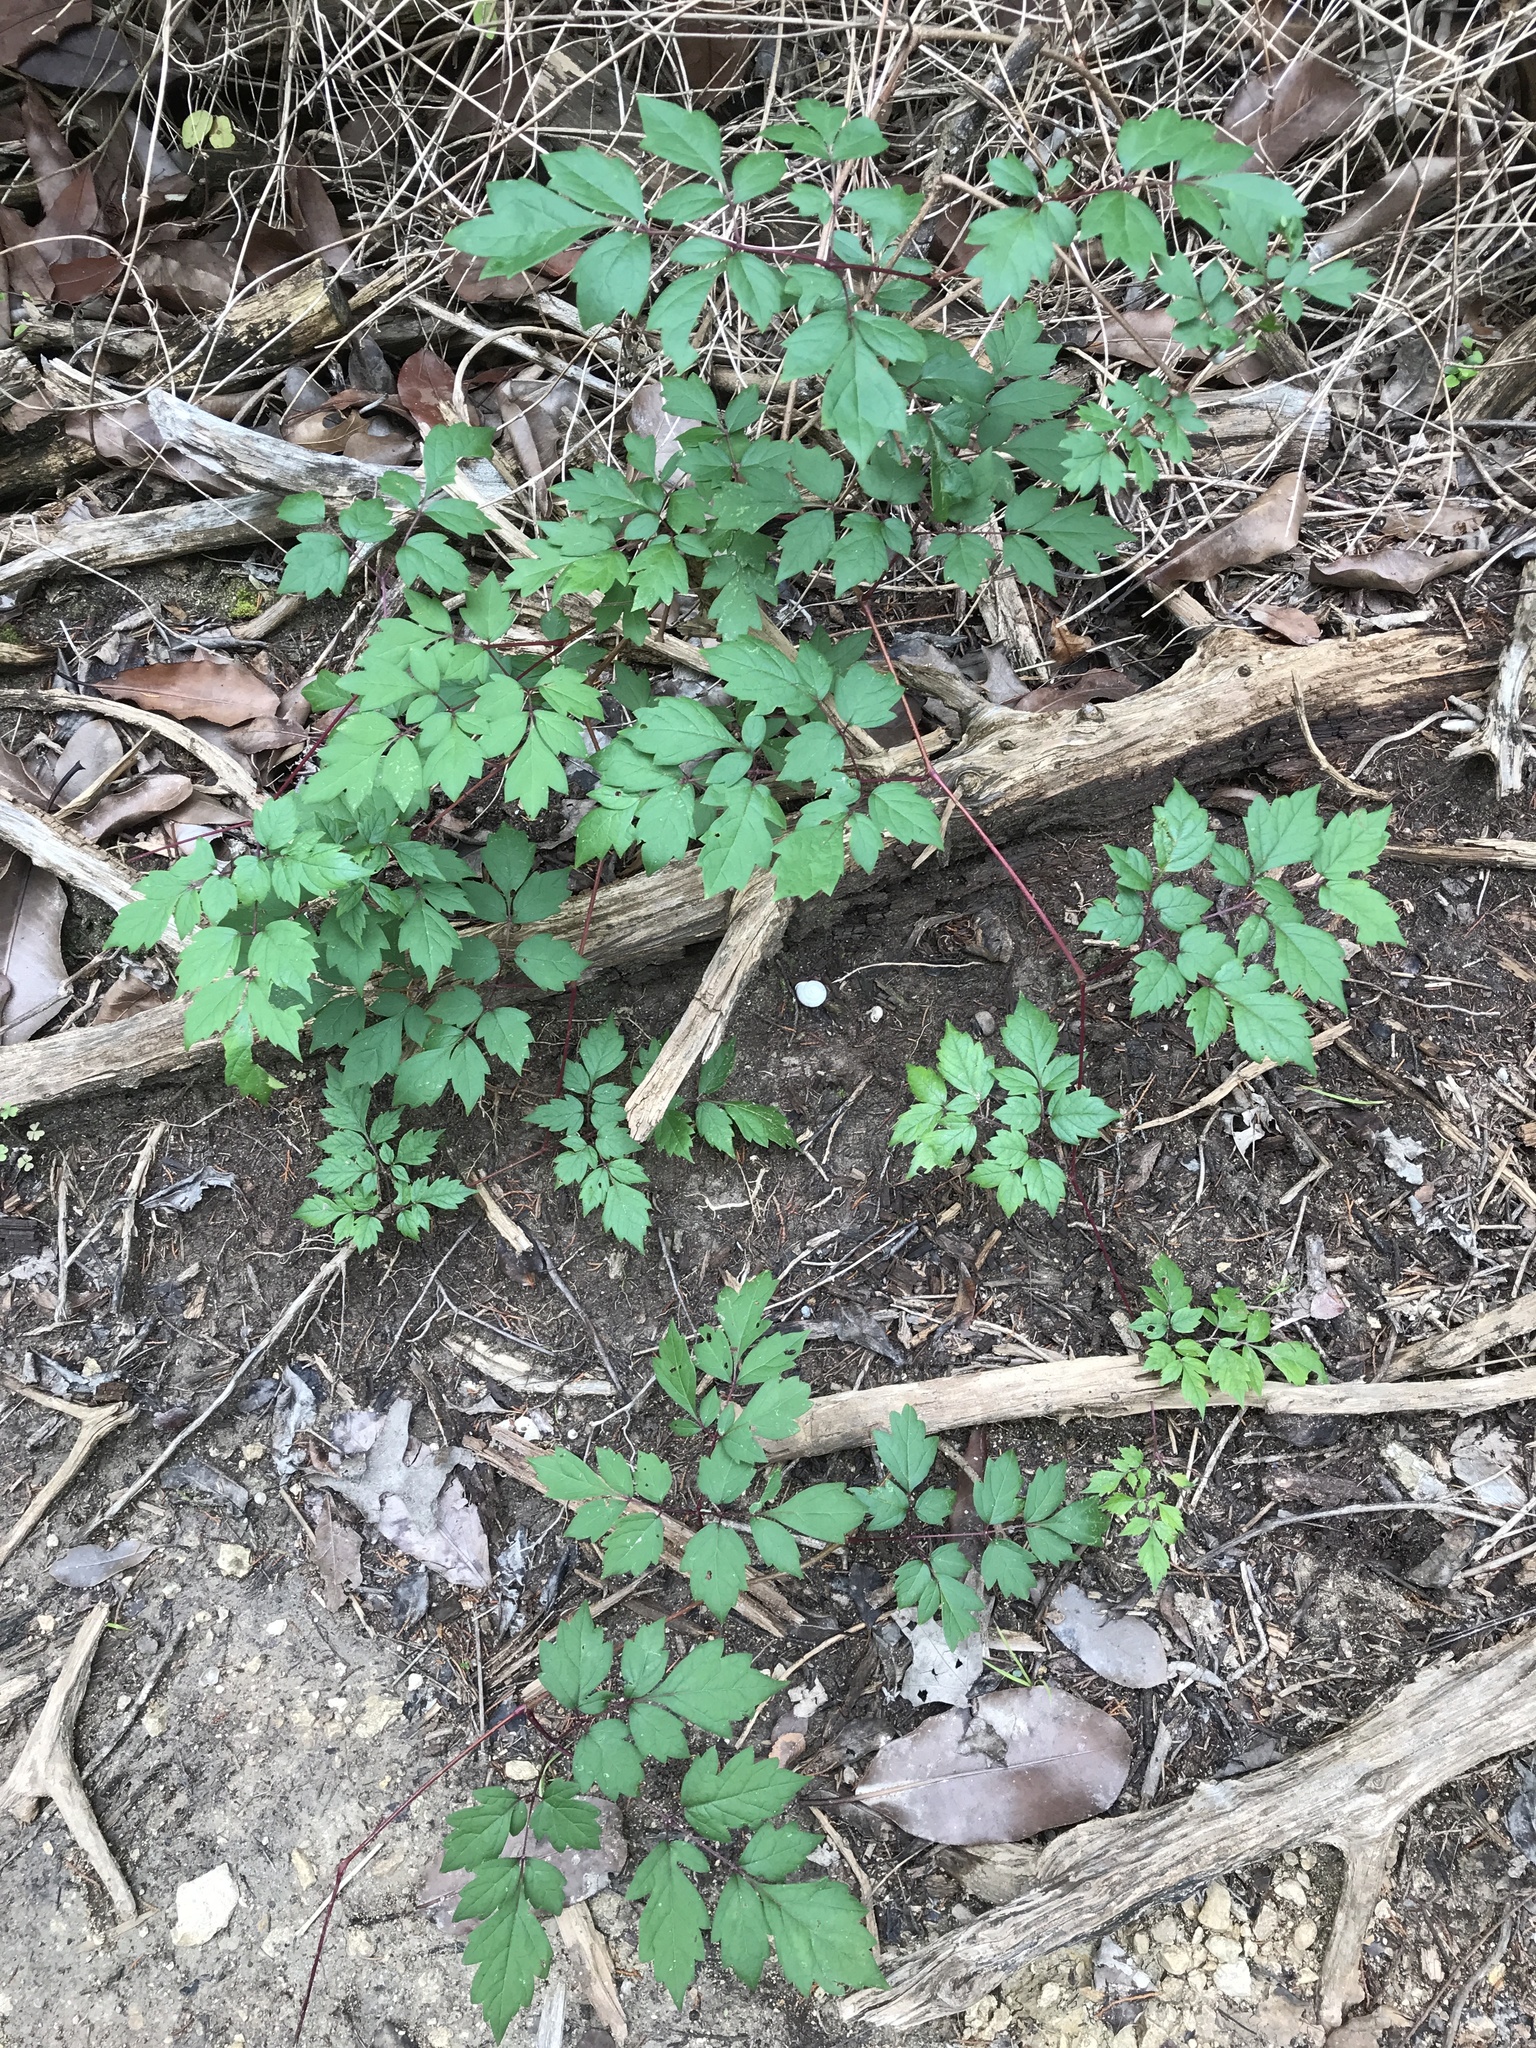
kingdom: Plantae
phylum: Tracheophyta
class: Magnoliopsida
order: Vitales
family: Vitaceae
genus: Nekemias
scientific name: Nekemias arborea
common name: Peppervine
